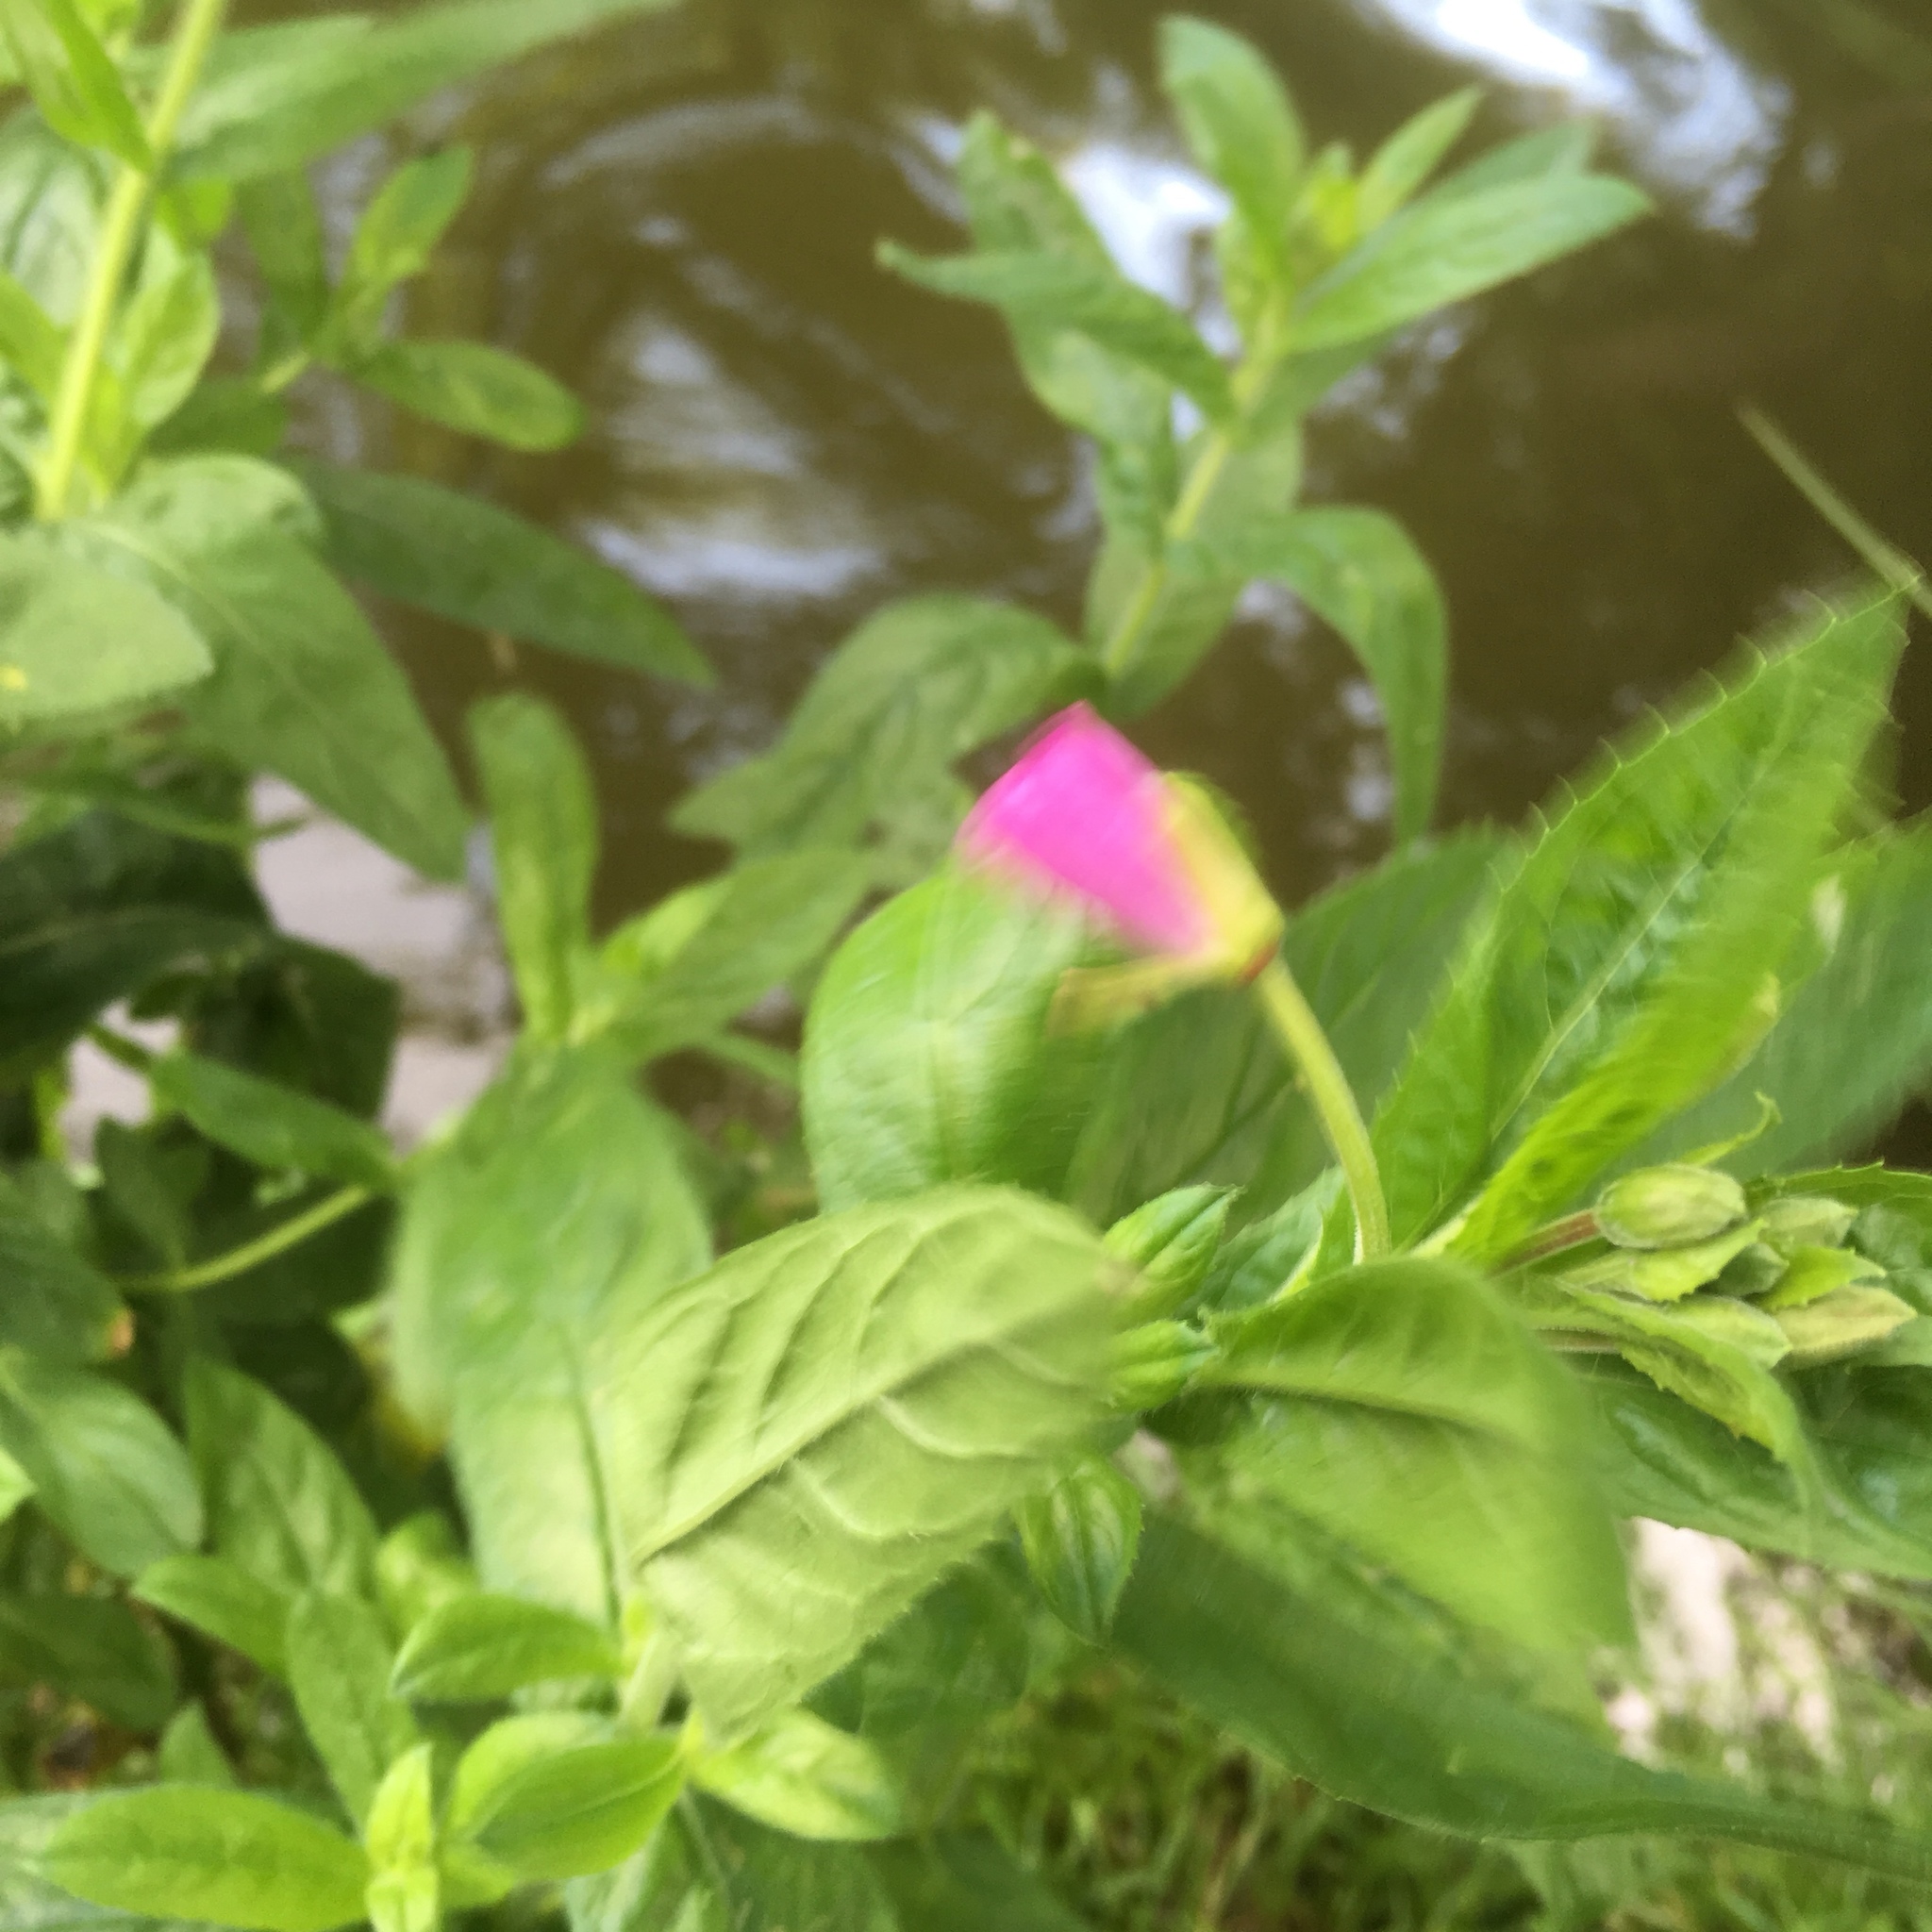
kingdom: Plantae
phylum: Tracheophyta
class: Magnoliopsida
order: Myrtales
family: Onagraceae
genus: Epilobium
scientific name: Epilobium hirsutum
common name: Great willowherb
